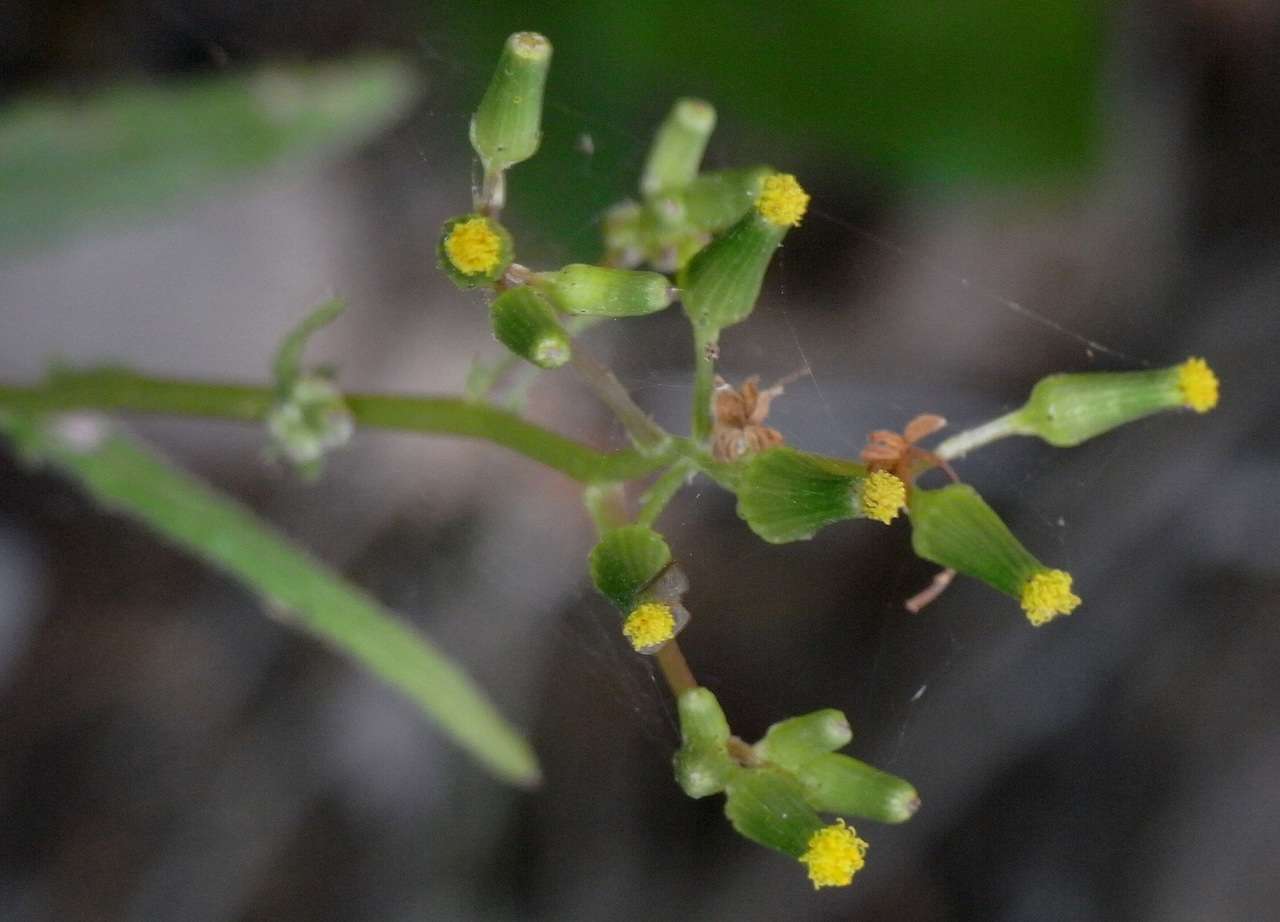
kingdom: Plantae
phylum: Tracheophyta
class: Magnoliopsida
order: Asterales
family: Asteraceae
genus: Senecio
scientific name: Senecio hispidulus
